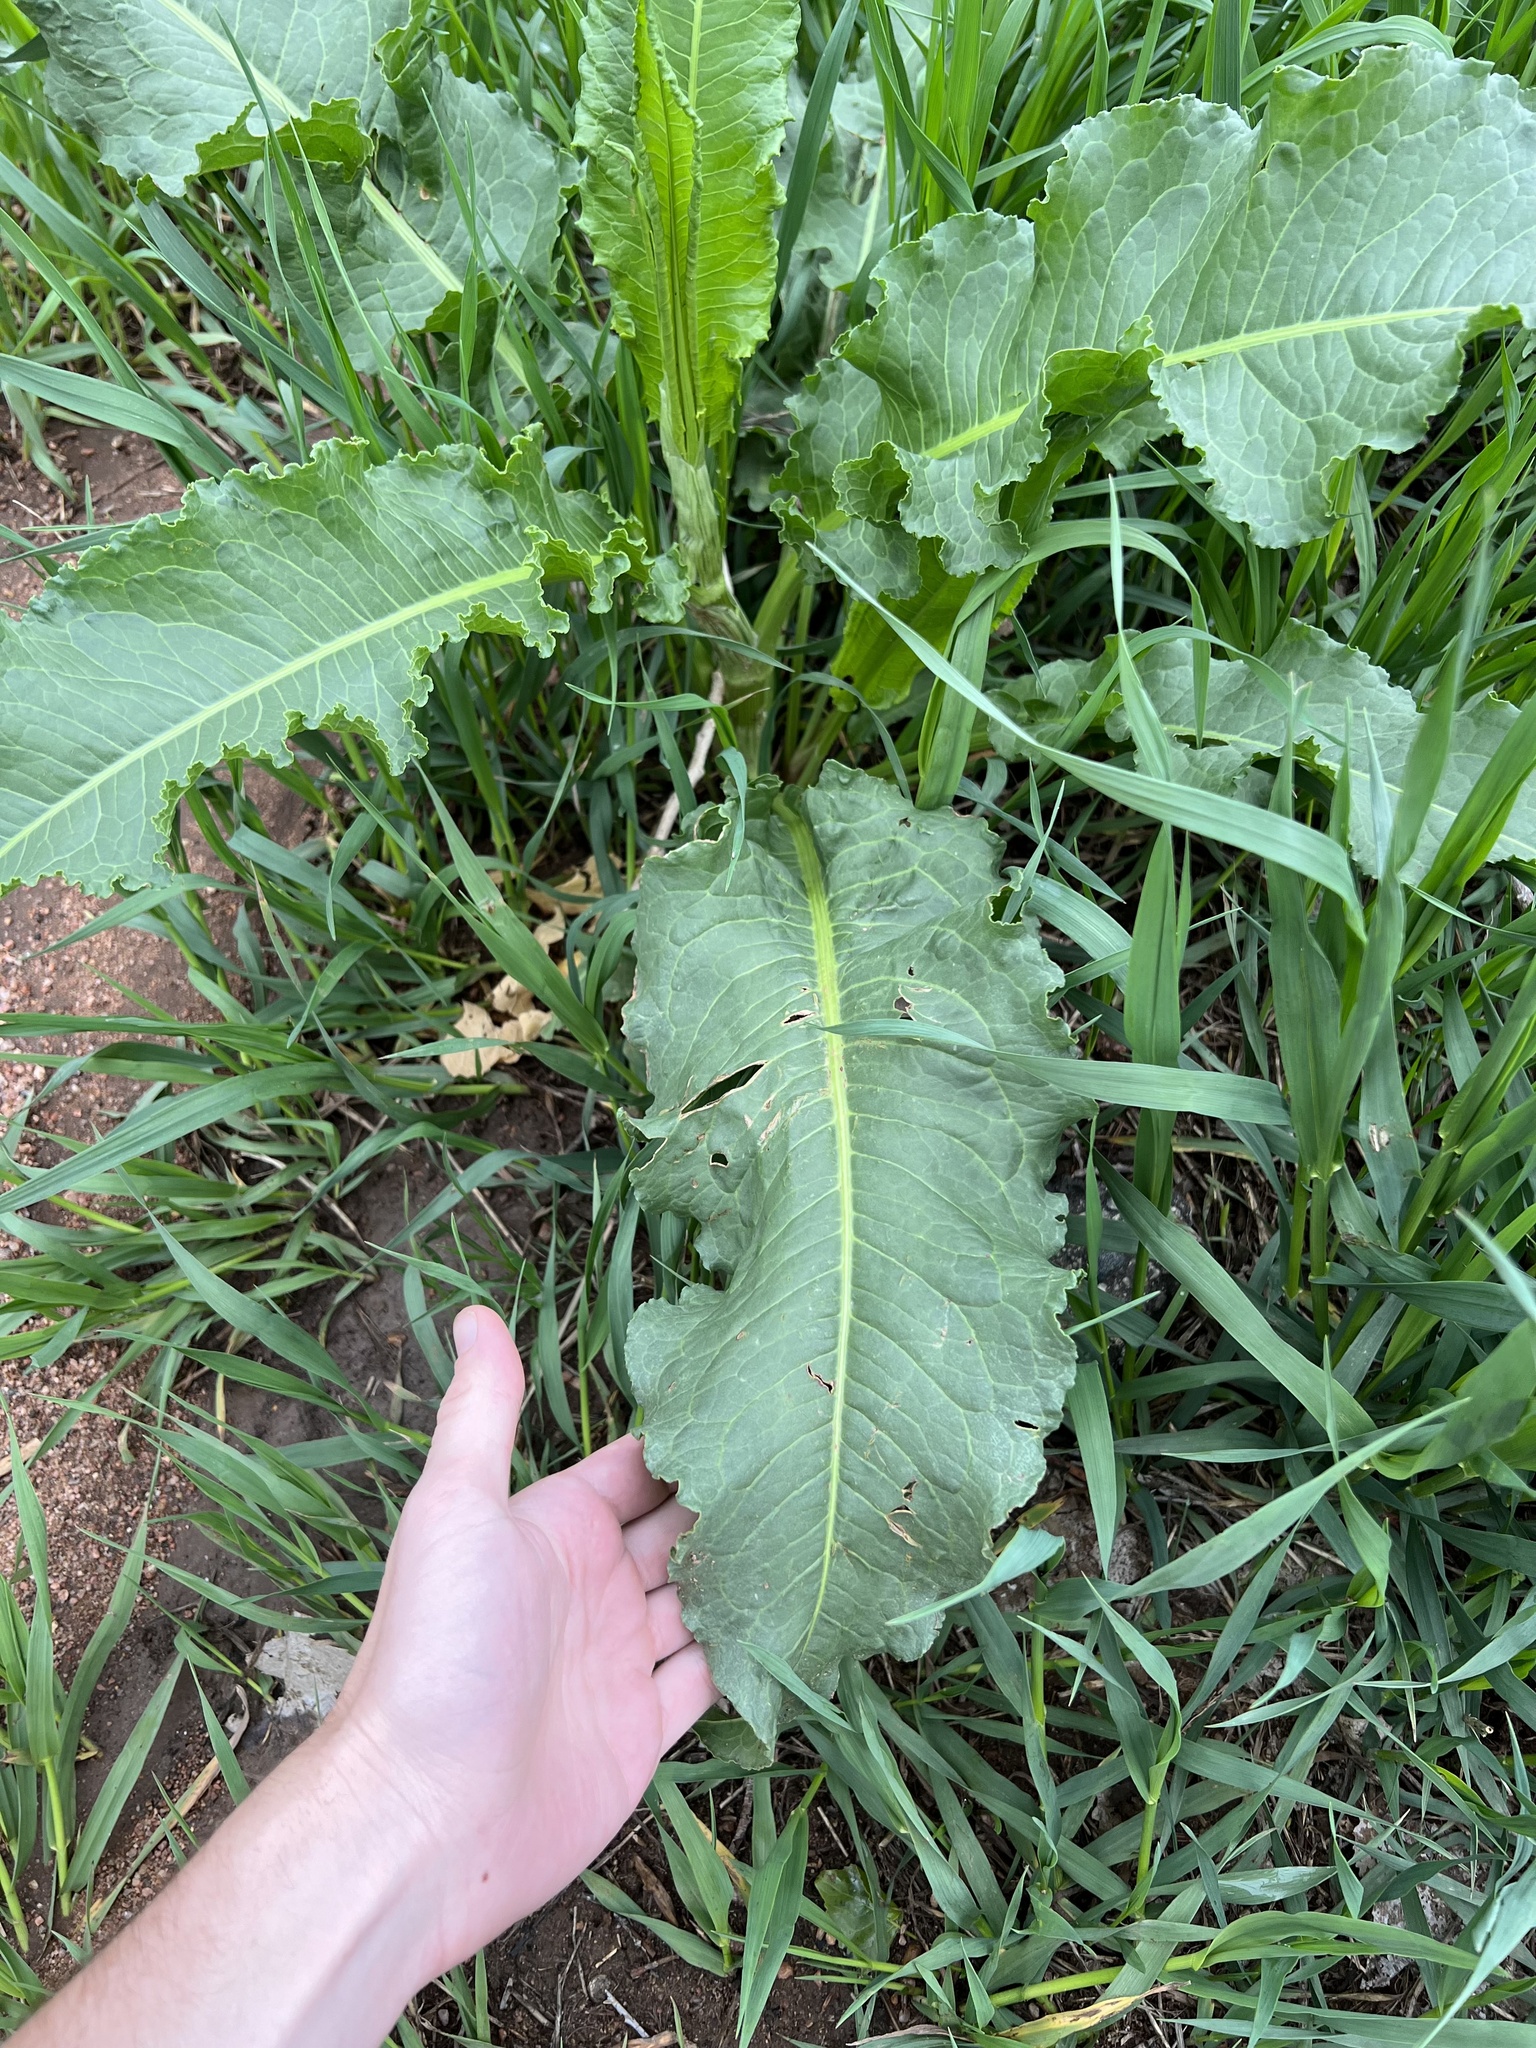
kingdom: Plantae
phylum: Tracheophyta
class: Magnoliopsida
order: Caryophyllales
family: Polygonaceae
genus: Rumex
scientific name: Rumex crispus
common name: Curled dock
